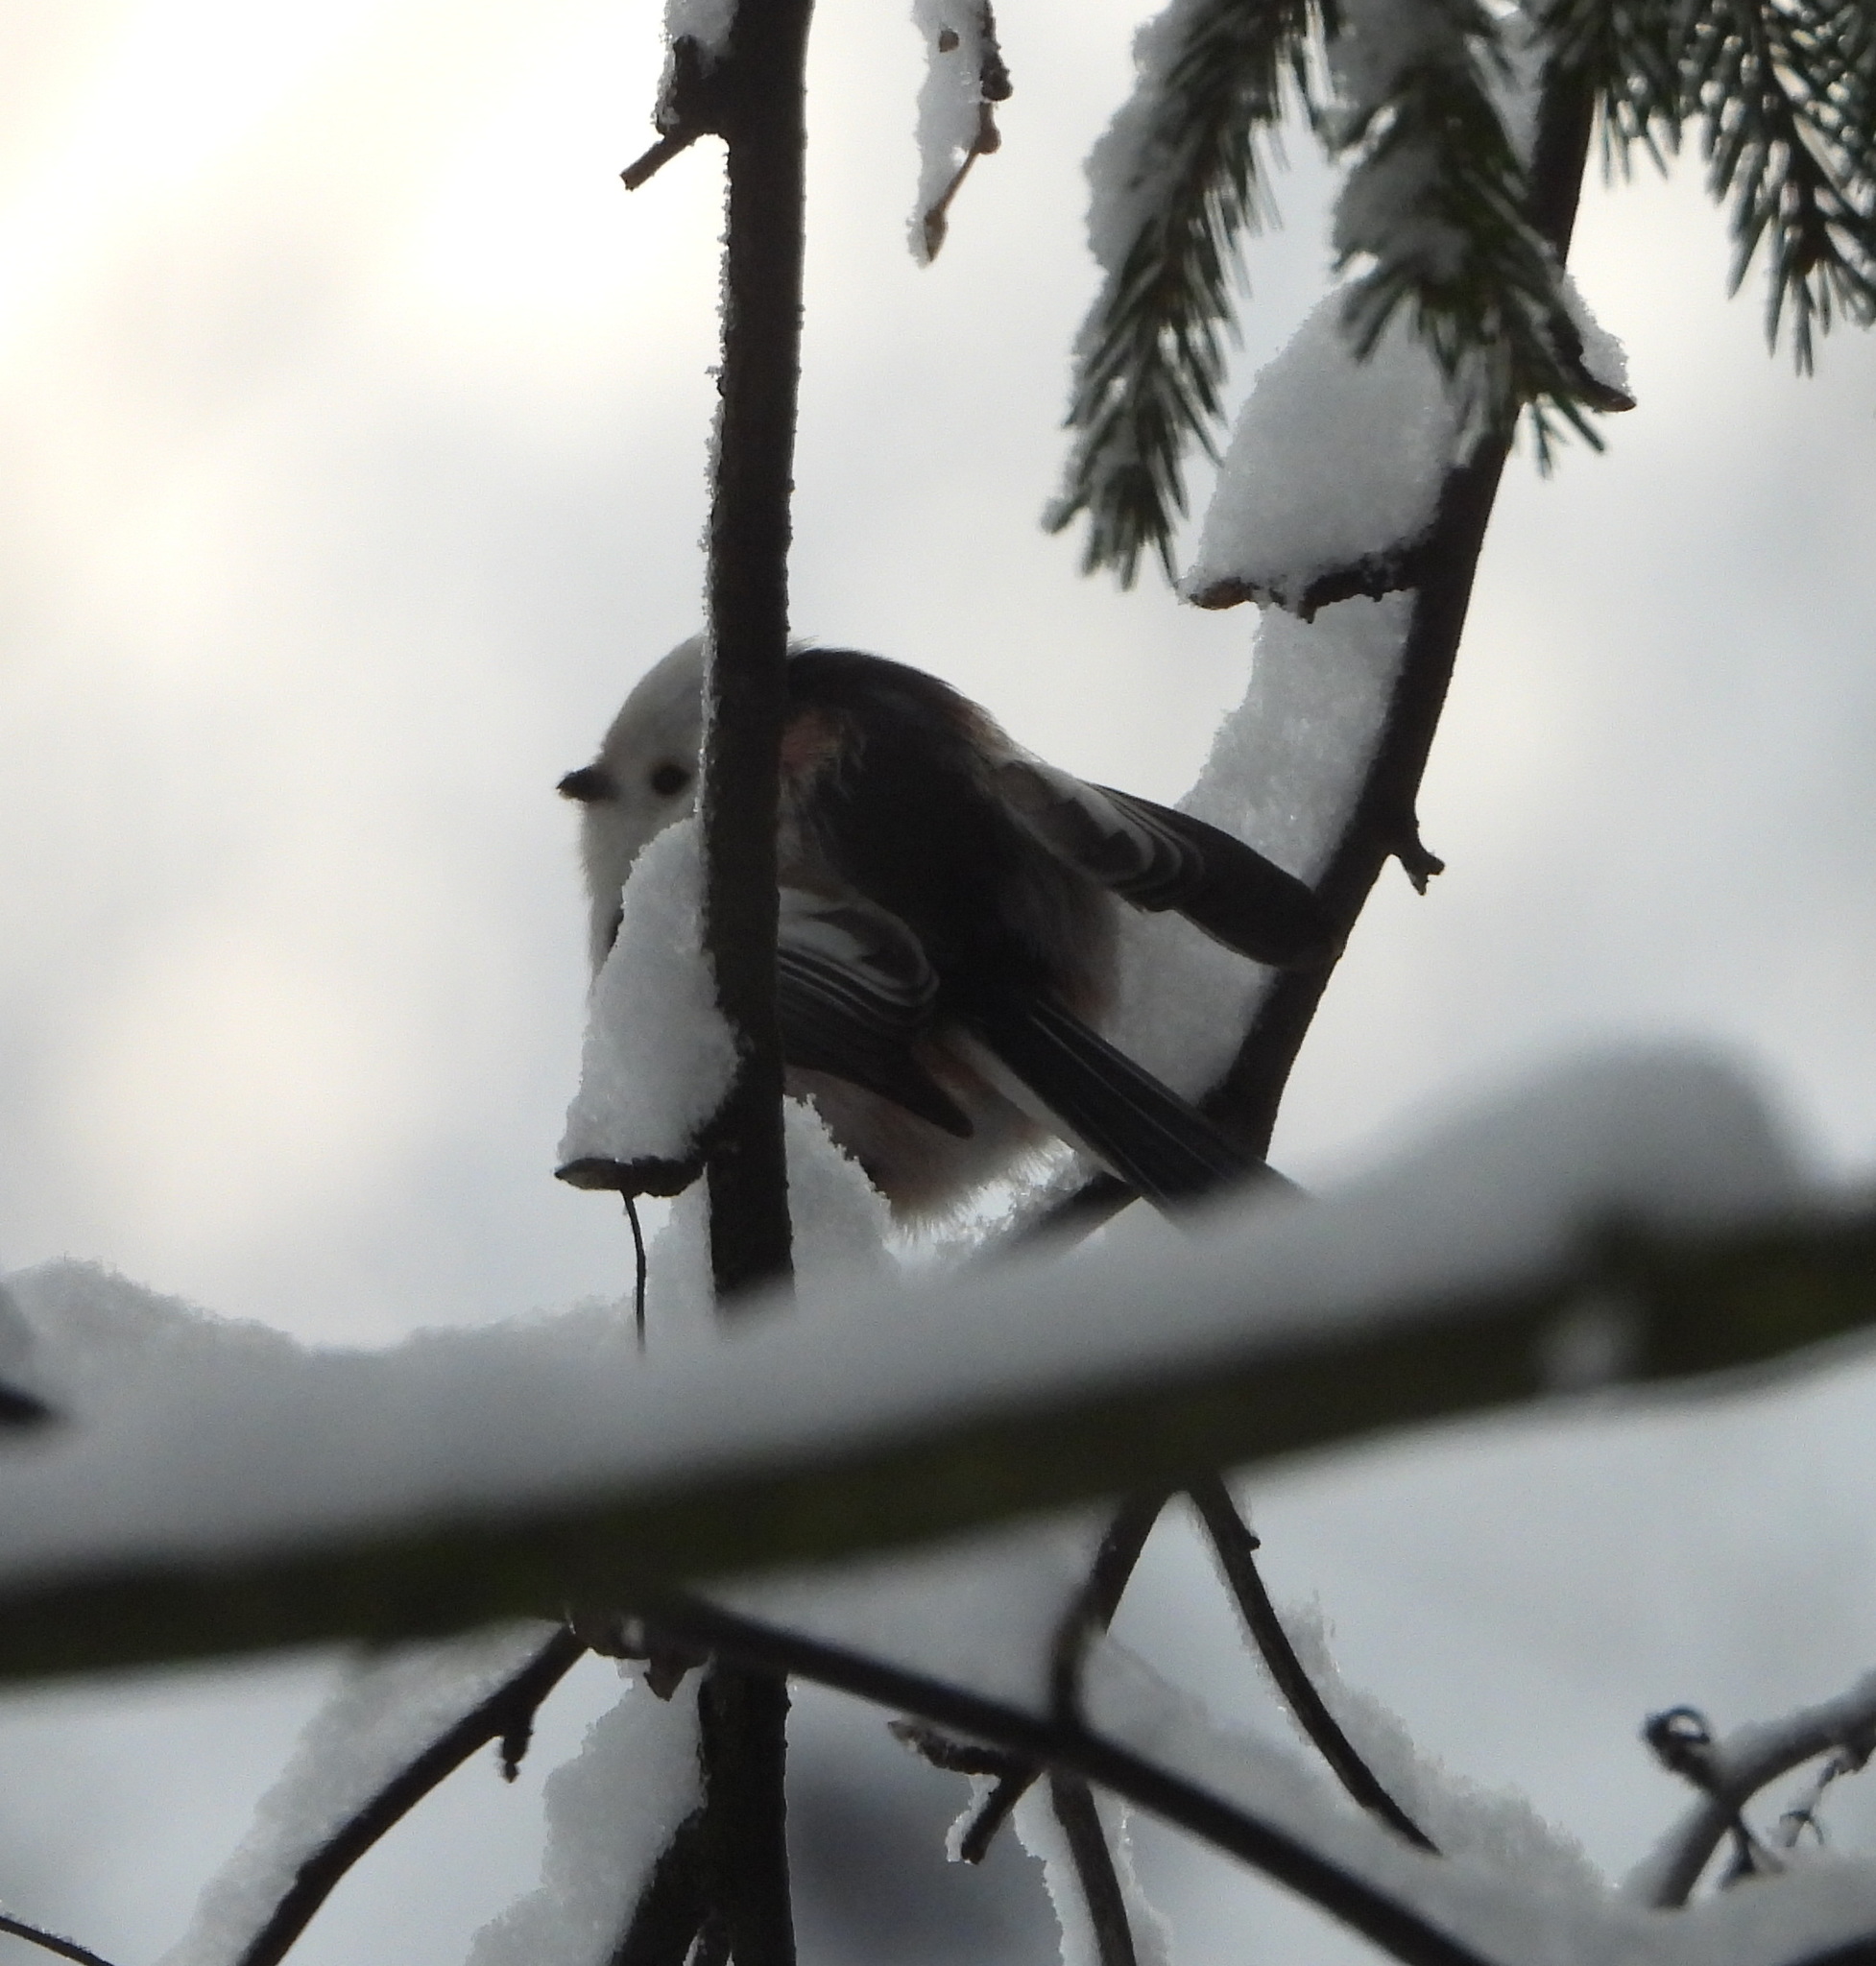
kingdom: Animalia
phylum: Chordata
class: Aves
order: Passeriformes
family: Aegithalidae
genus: Aegithalos
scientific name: Aegithalos caudatus
